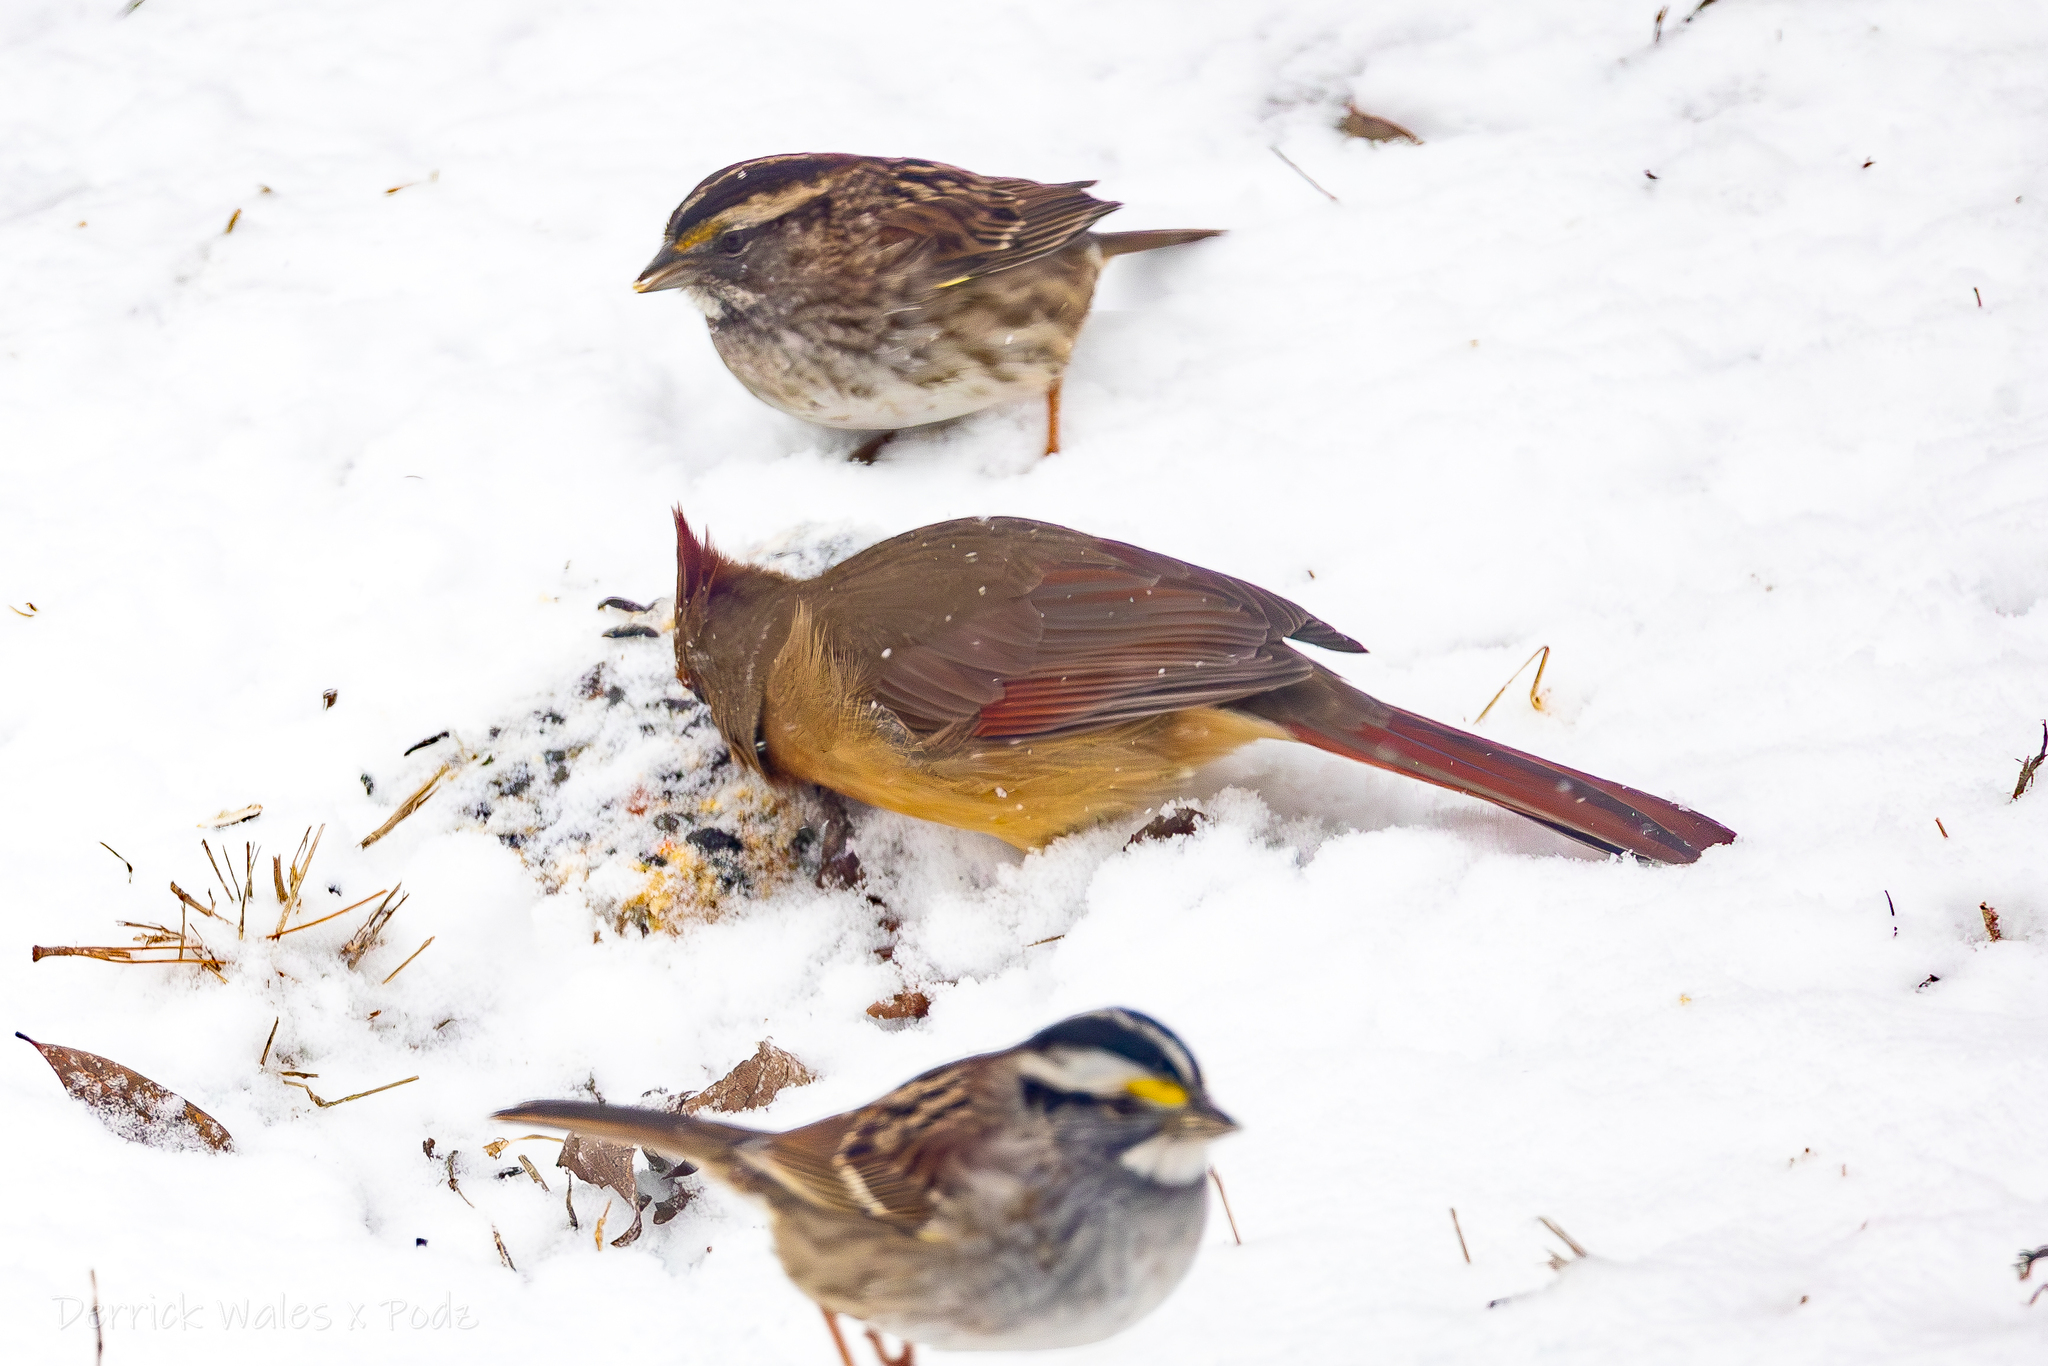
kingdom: Animalia
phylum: Chordata
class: Aves
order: Passeriformes
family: Cardinalidae
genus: Cardinalis
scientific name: Cardinalis cardinalis
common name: Northern cardinal
